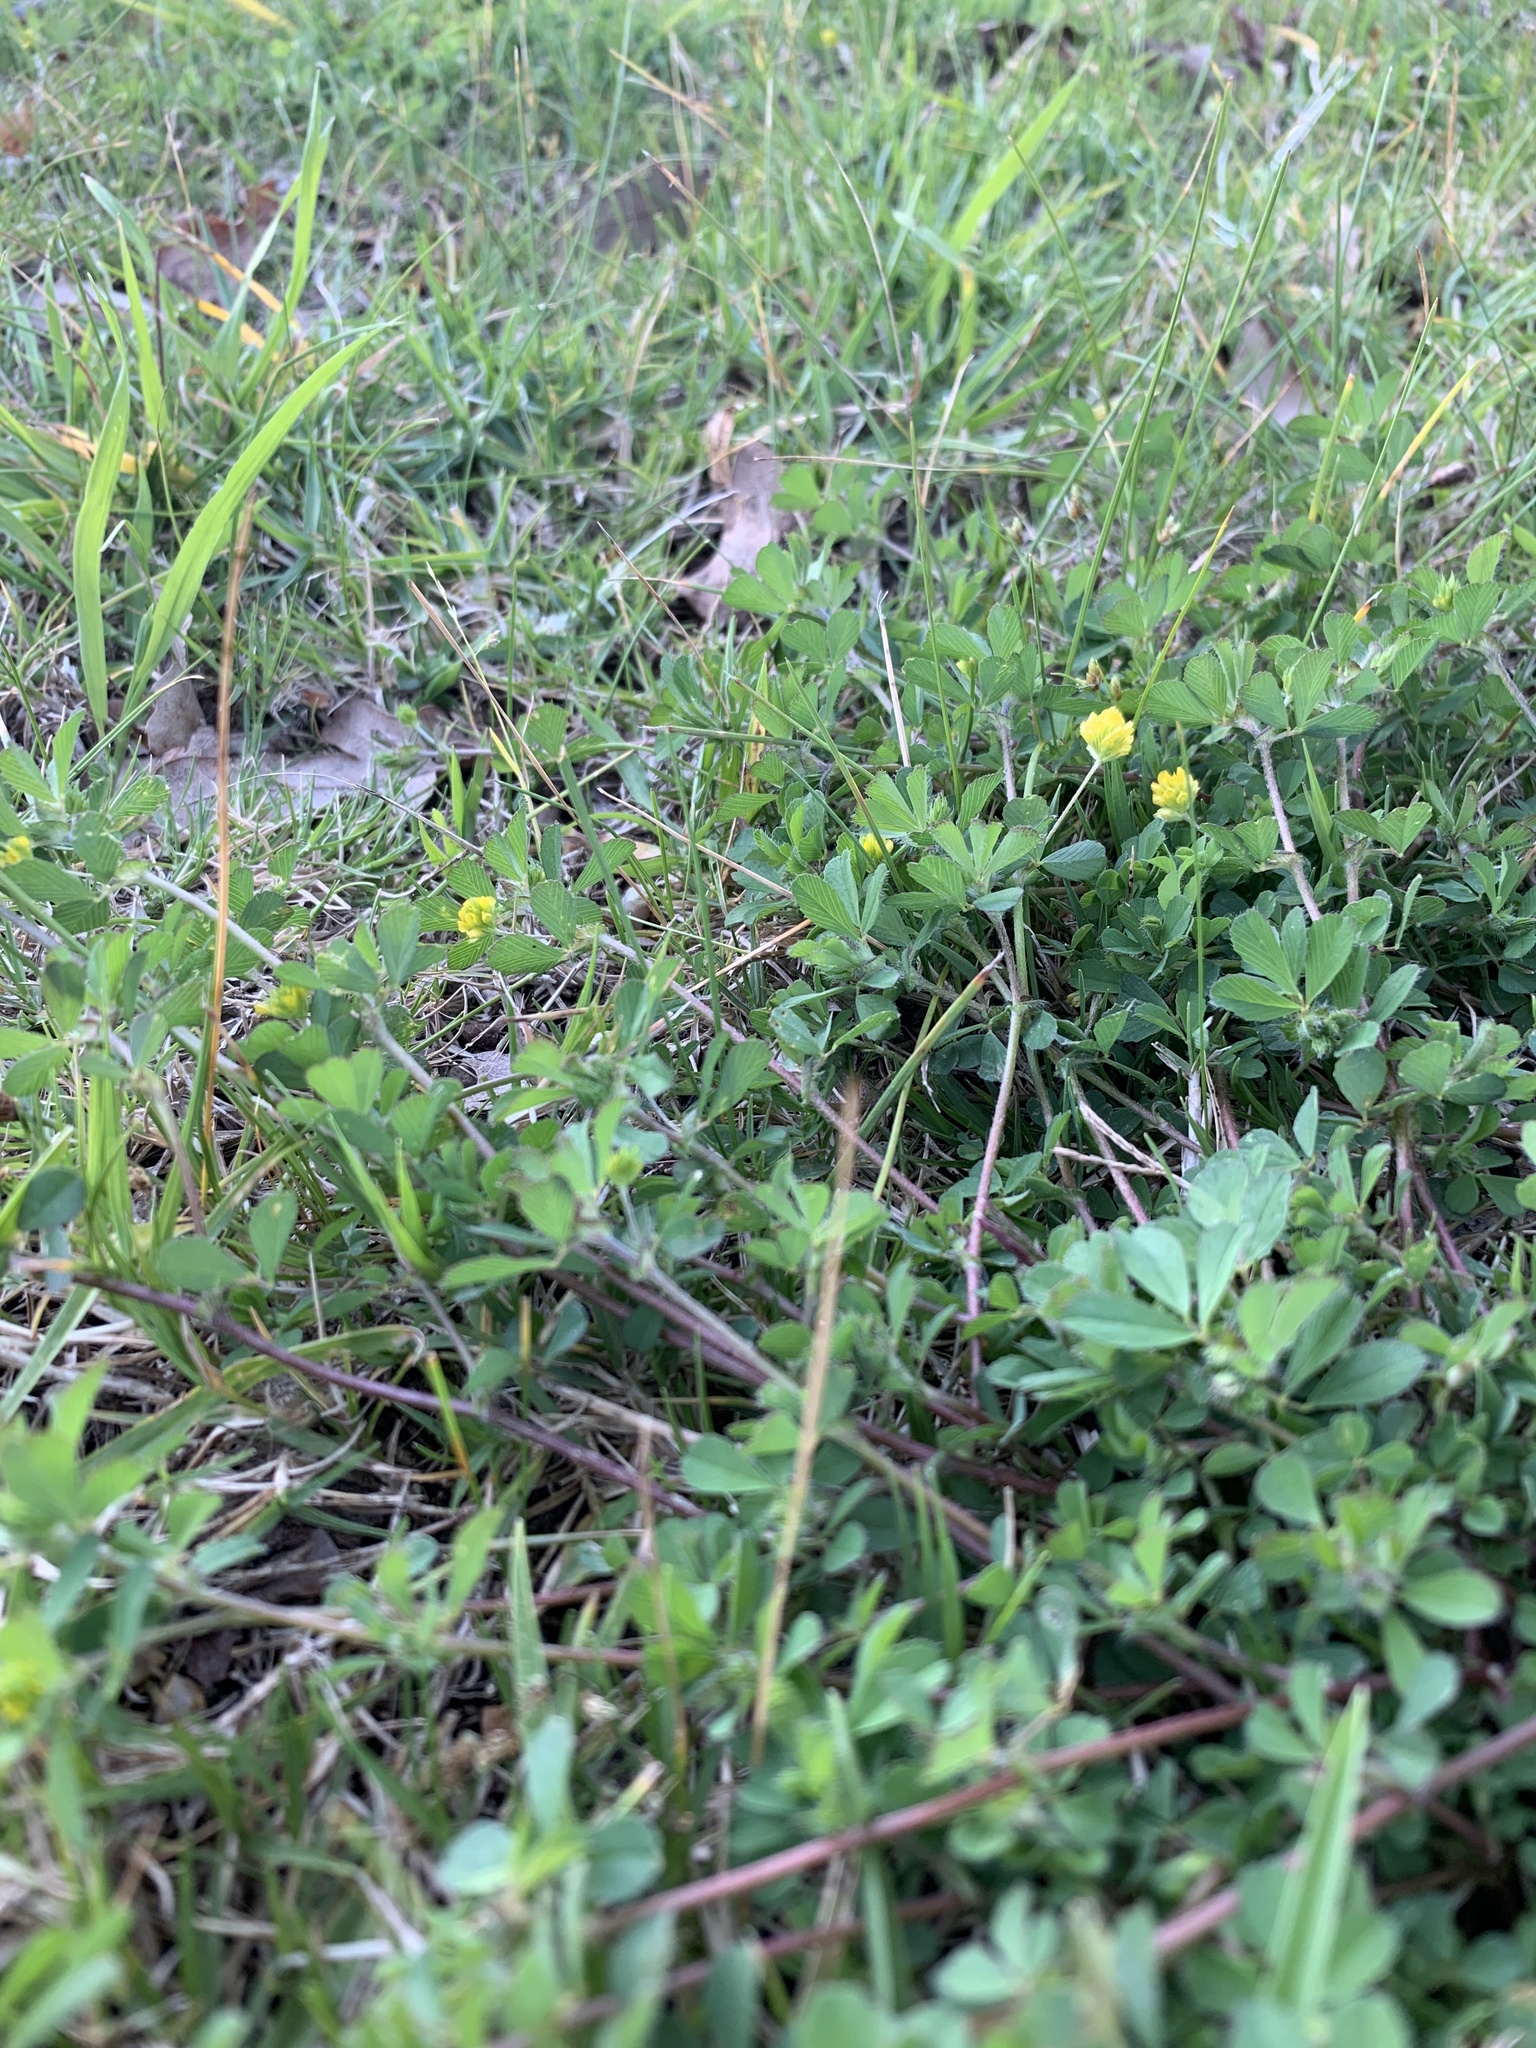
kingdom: Plantae
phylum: Tracheophyta
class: Magnoliopsida
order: Fabales
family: Fabaceae
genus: Trifolium
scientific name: Trifolium dubium
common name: Suckling clover
